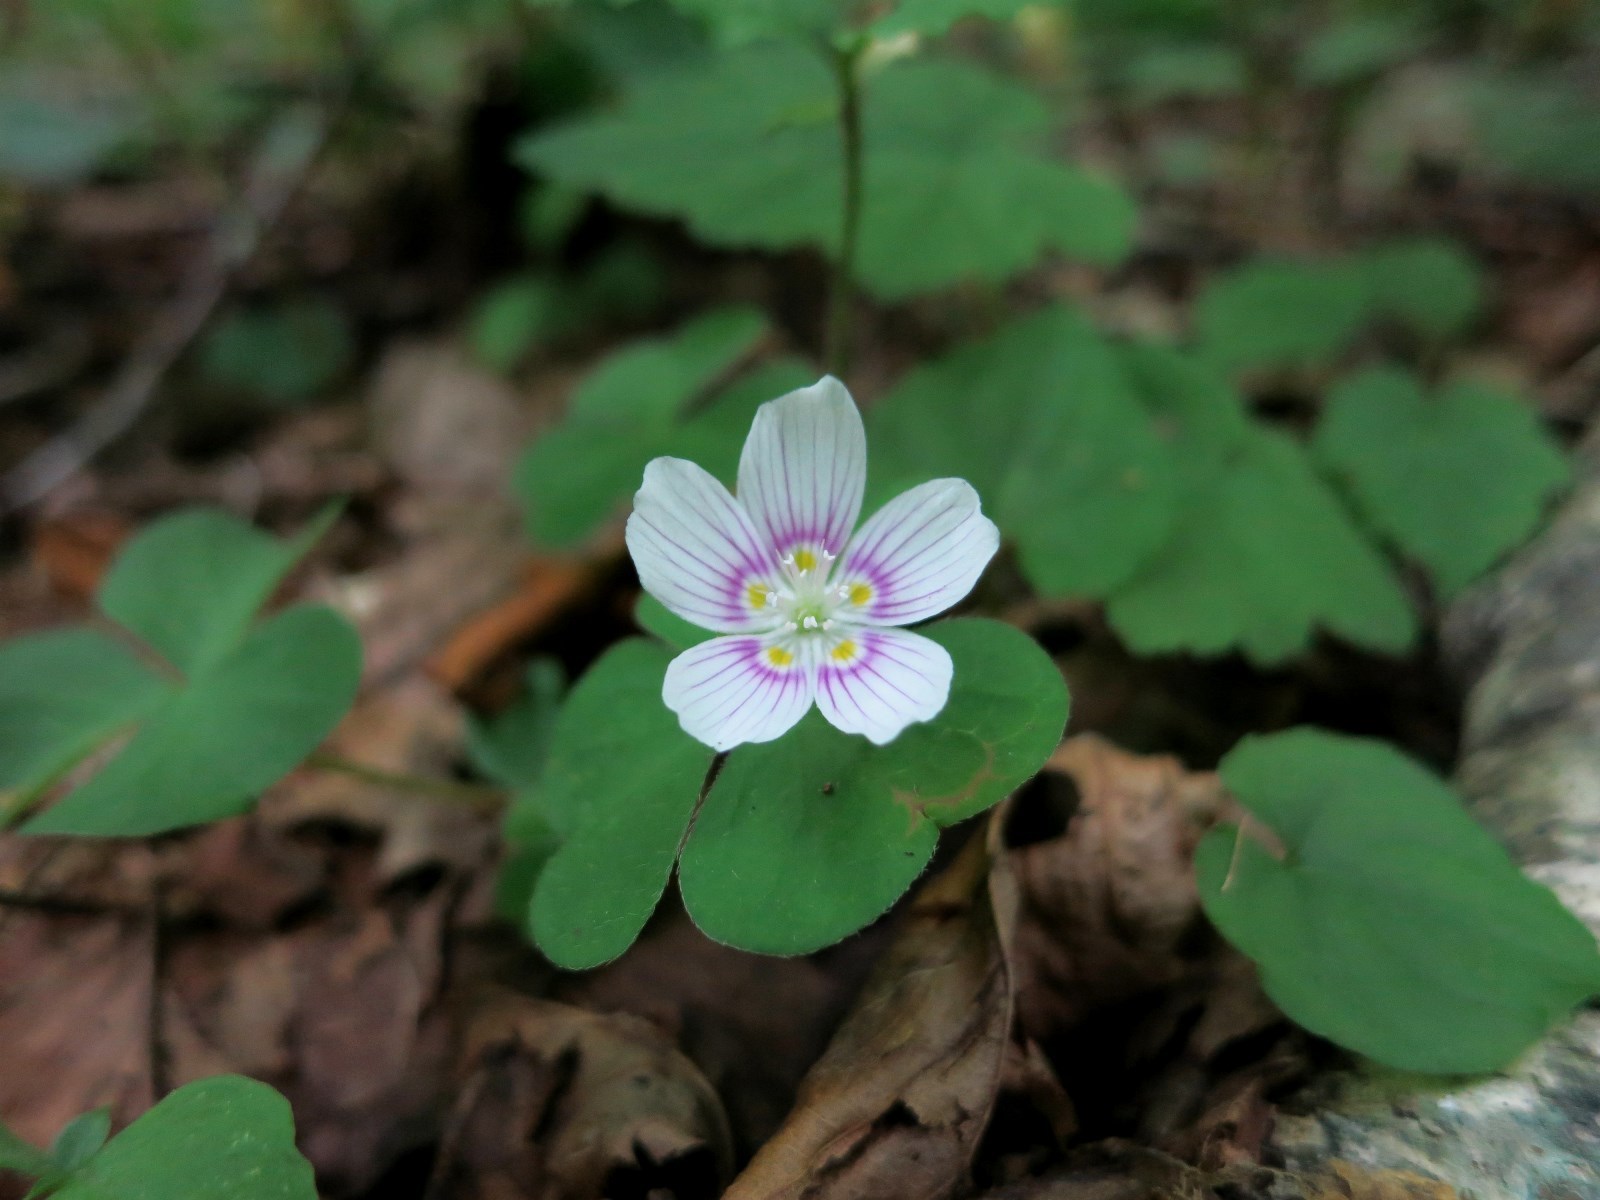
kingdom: Plantae
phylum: Tracheophyta
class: Magnoliopsida
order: Oxalidales
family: Oxalidaceae
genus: Oxalis
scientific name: Oxalis montana
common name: American wood-sorrel
